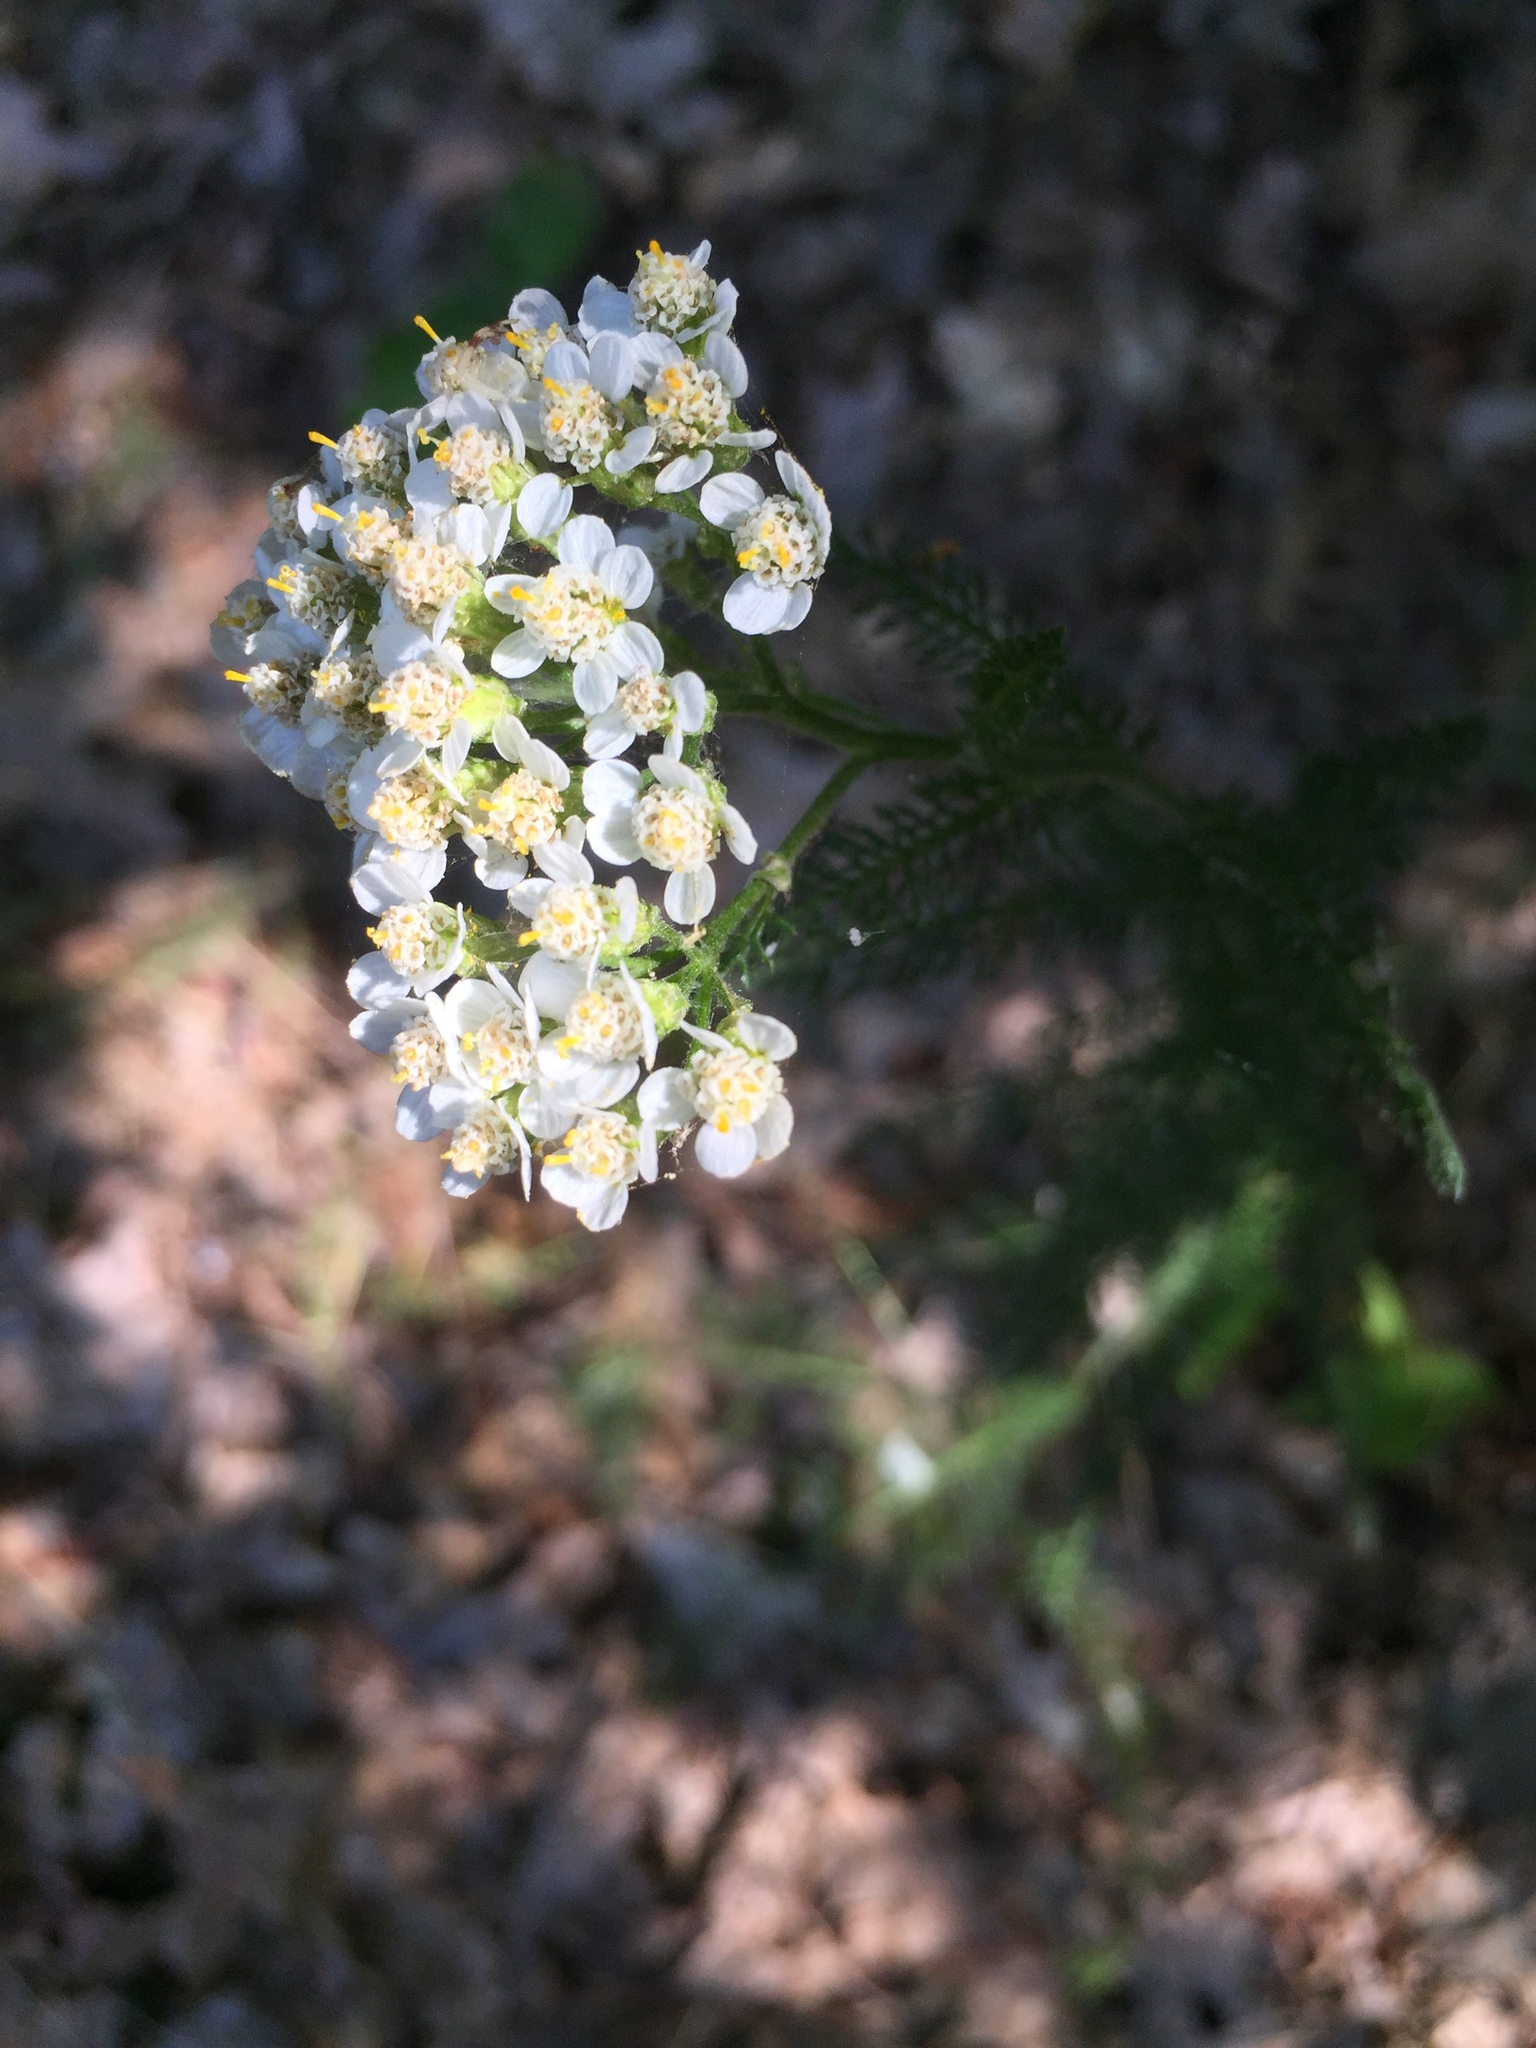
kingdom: Plantae
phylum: Tracheophyta
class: Magnoliopsida
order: Asterales
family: Asteraceae
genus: Achillea
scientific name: Achillea millefolium
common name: Yarrow
